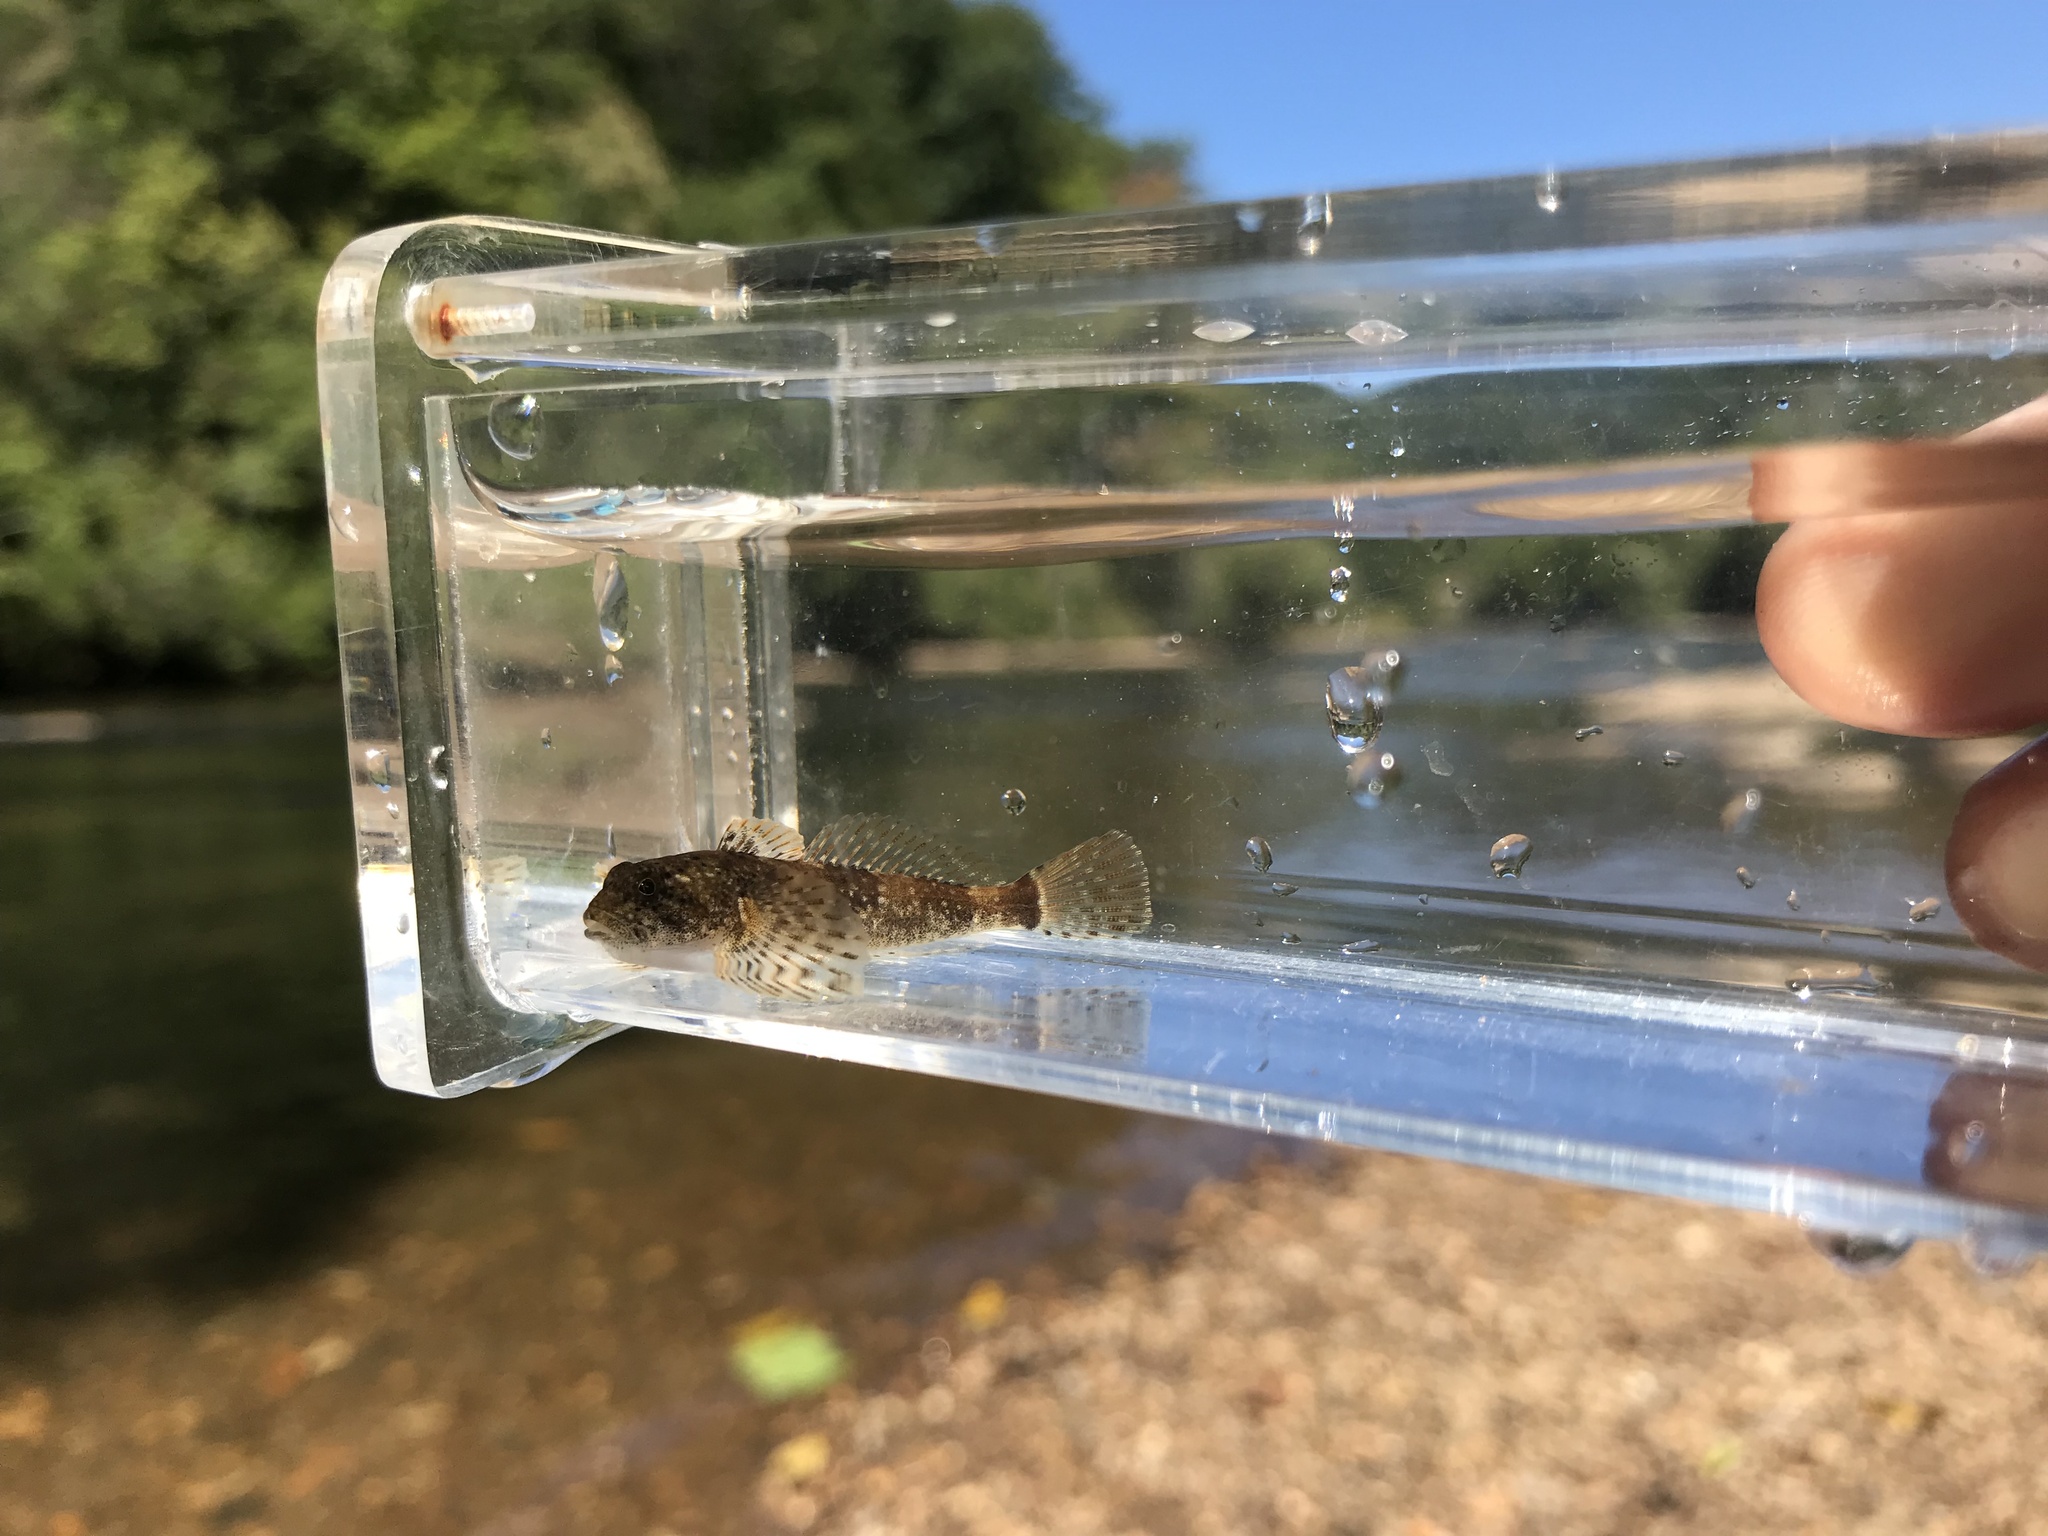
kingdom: Animalia
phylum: Chordata
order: Scorpaeniformes
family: Cottidae
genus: Cottus
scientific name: Cottus bairdii
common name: Mottled sculpin
